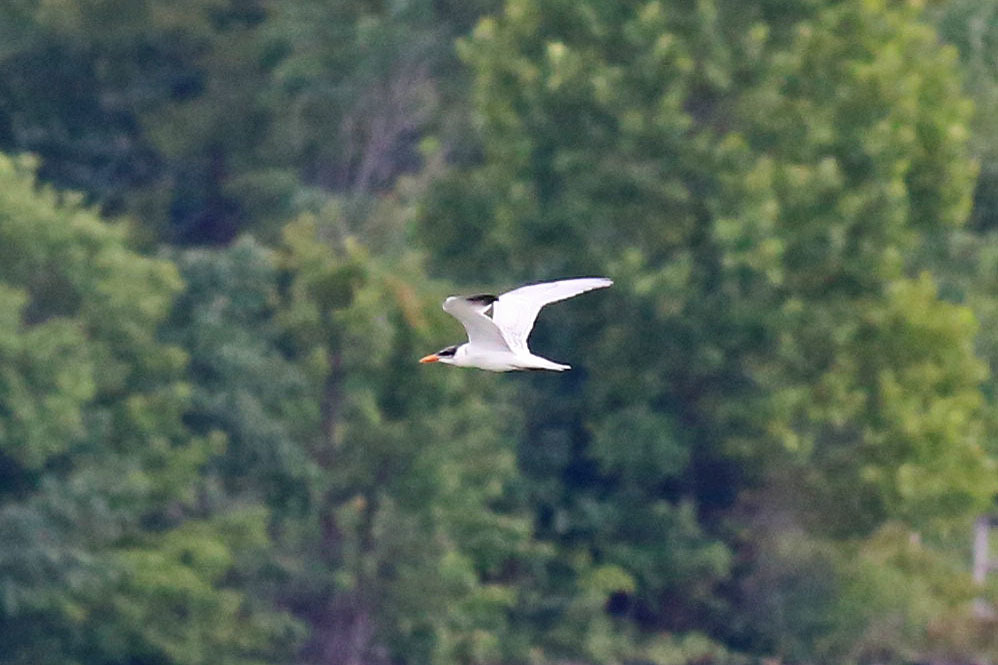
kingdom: Animalia
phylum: Chordata
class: Aves
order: Charadriiformes
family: Laridae
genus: Hydroprogne
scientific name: Hydroprogne caspia
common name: Caspian tern
